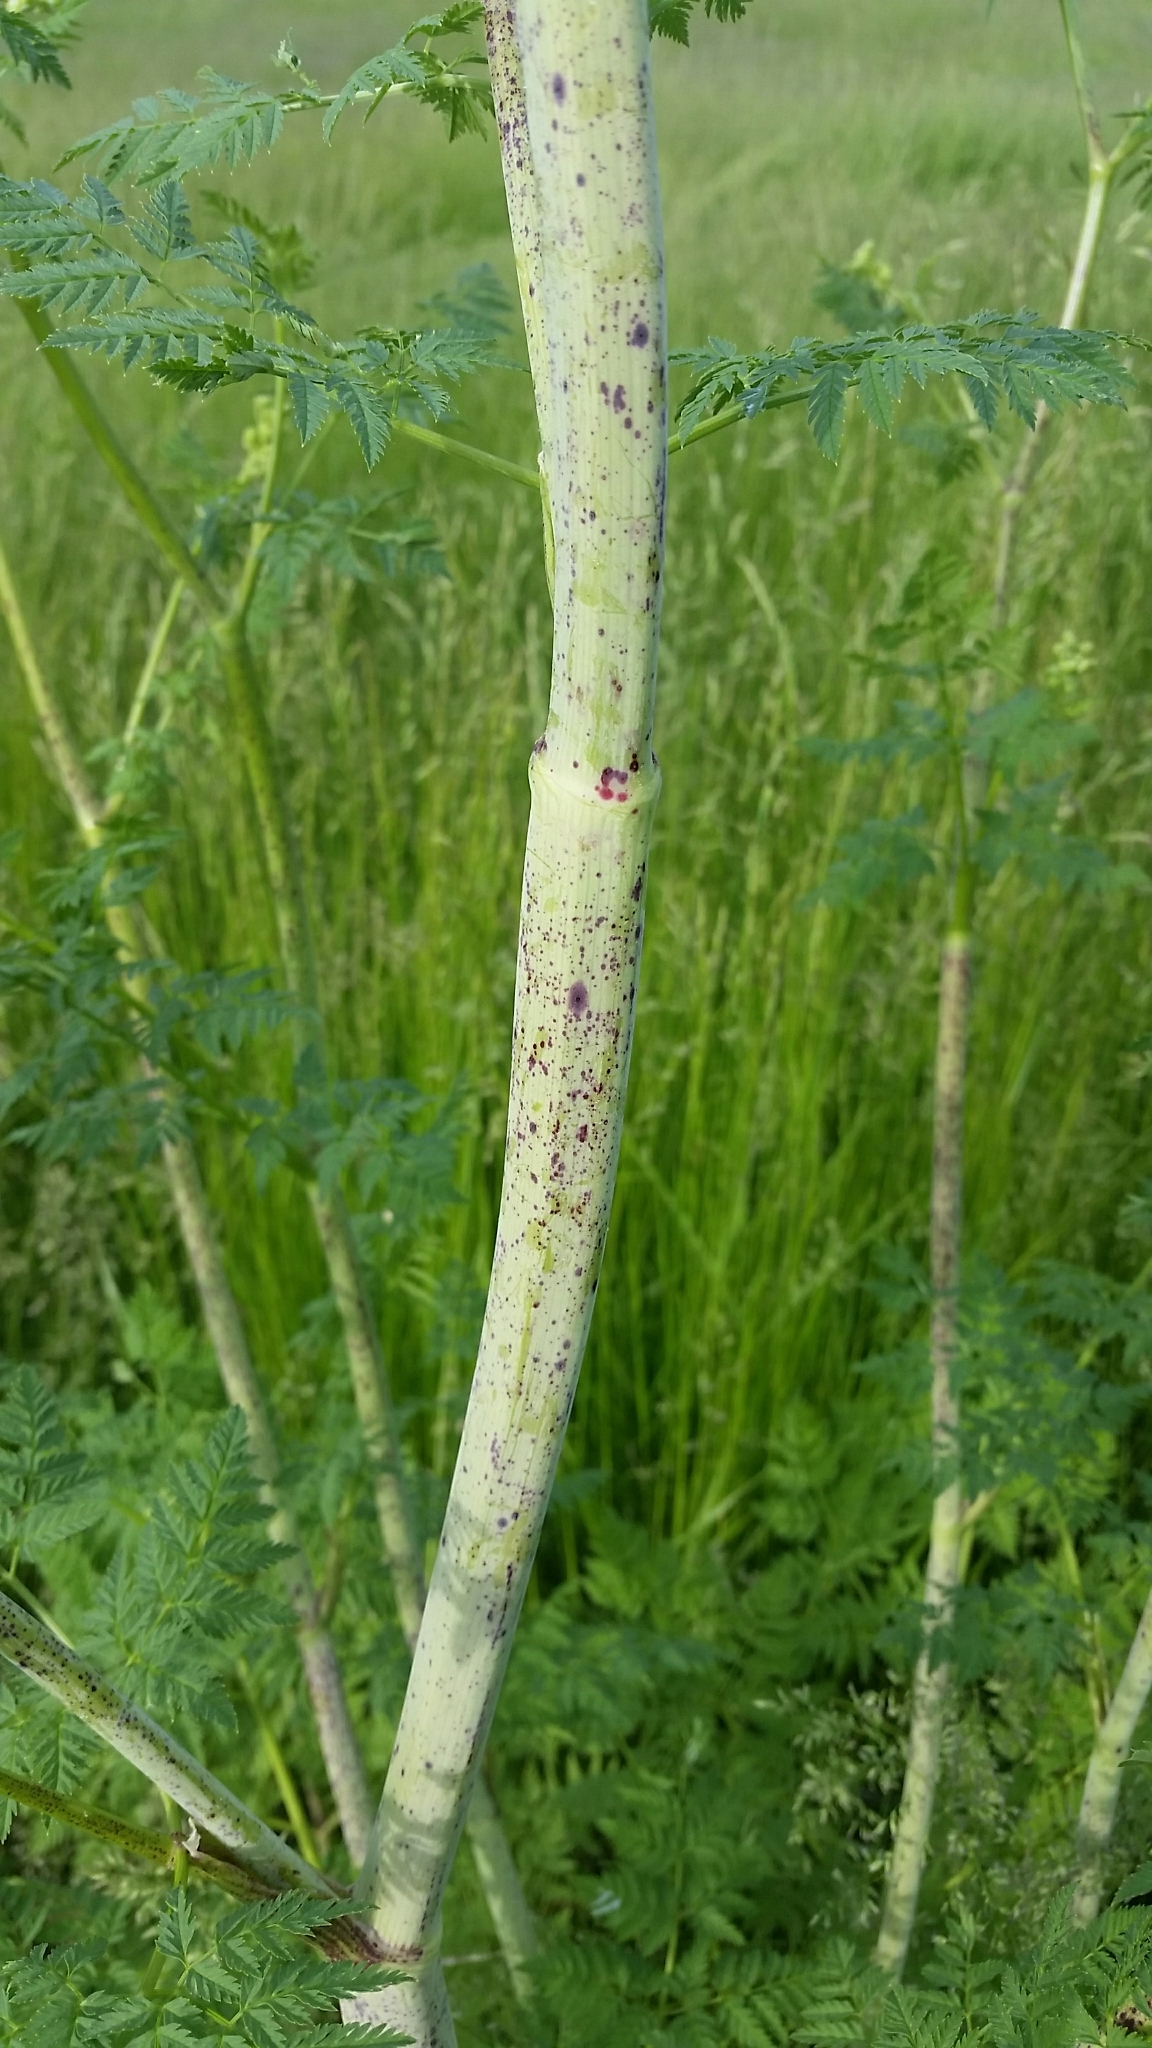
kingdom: Plantae
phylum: Tracheophyta
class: Magnoliopsida
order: Apiales
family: Apiaceae
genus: Conium
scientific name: Conium maculatum
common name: Hemlock
